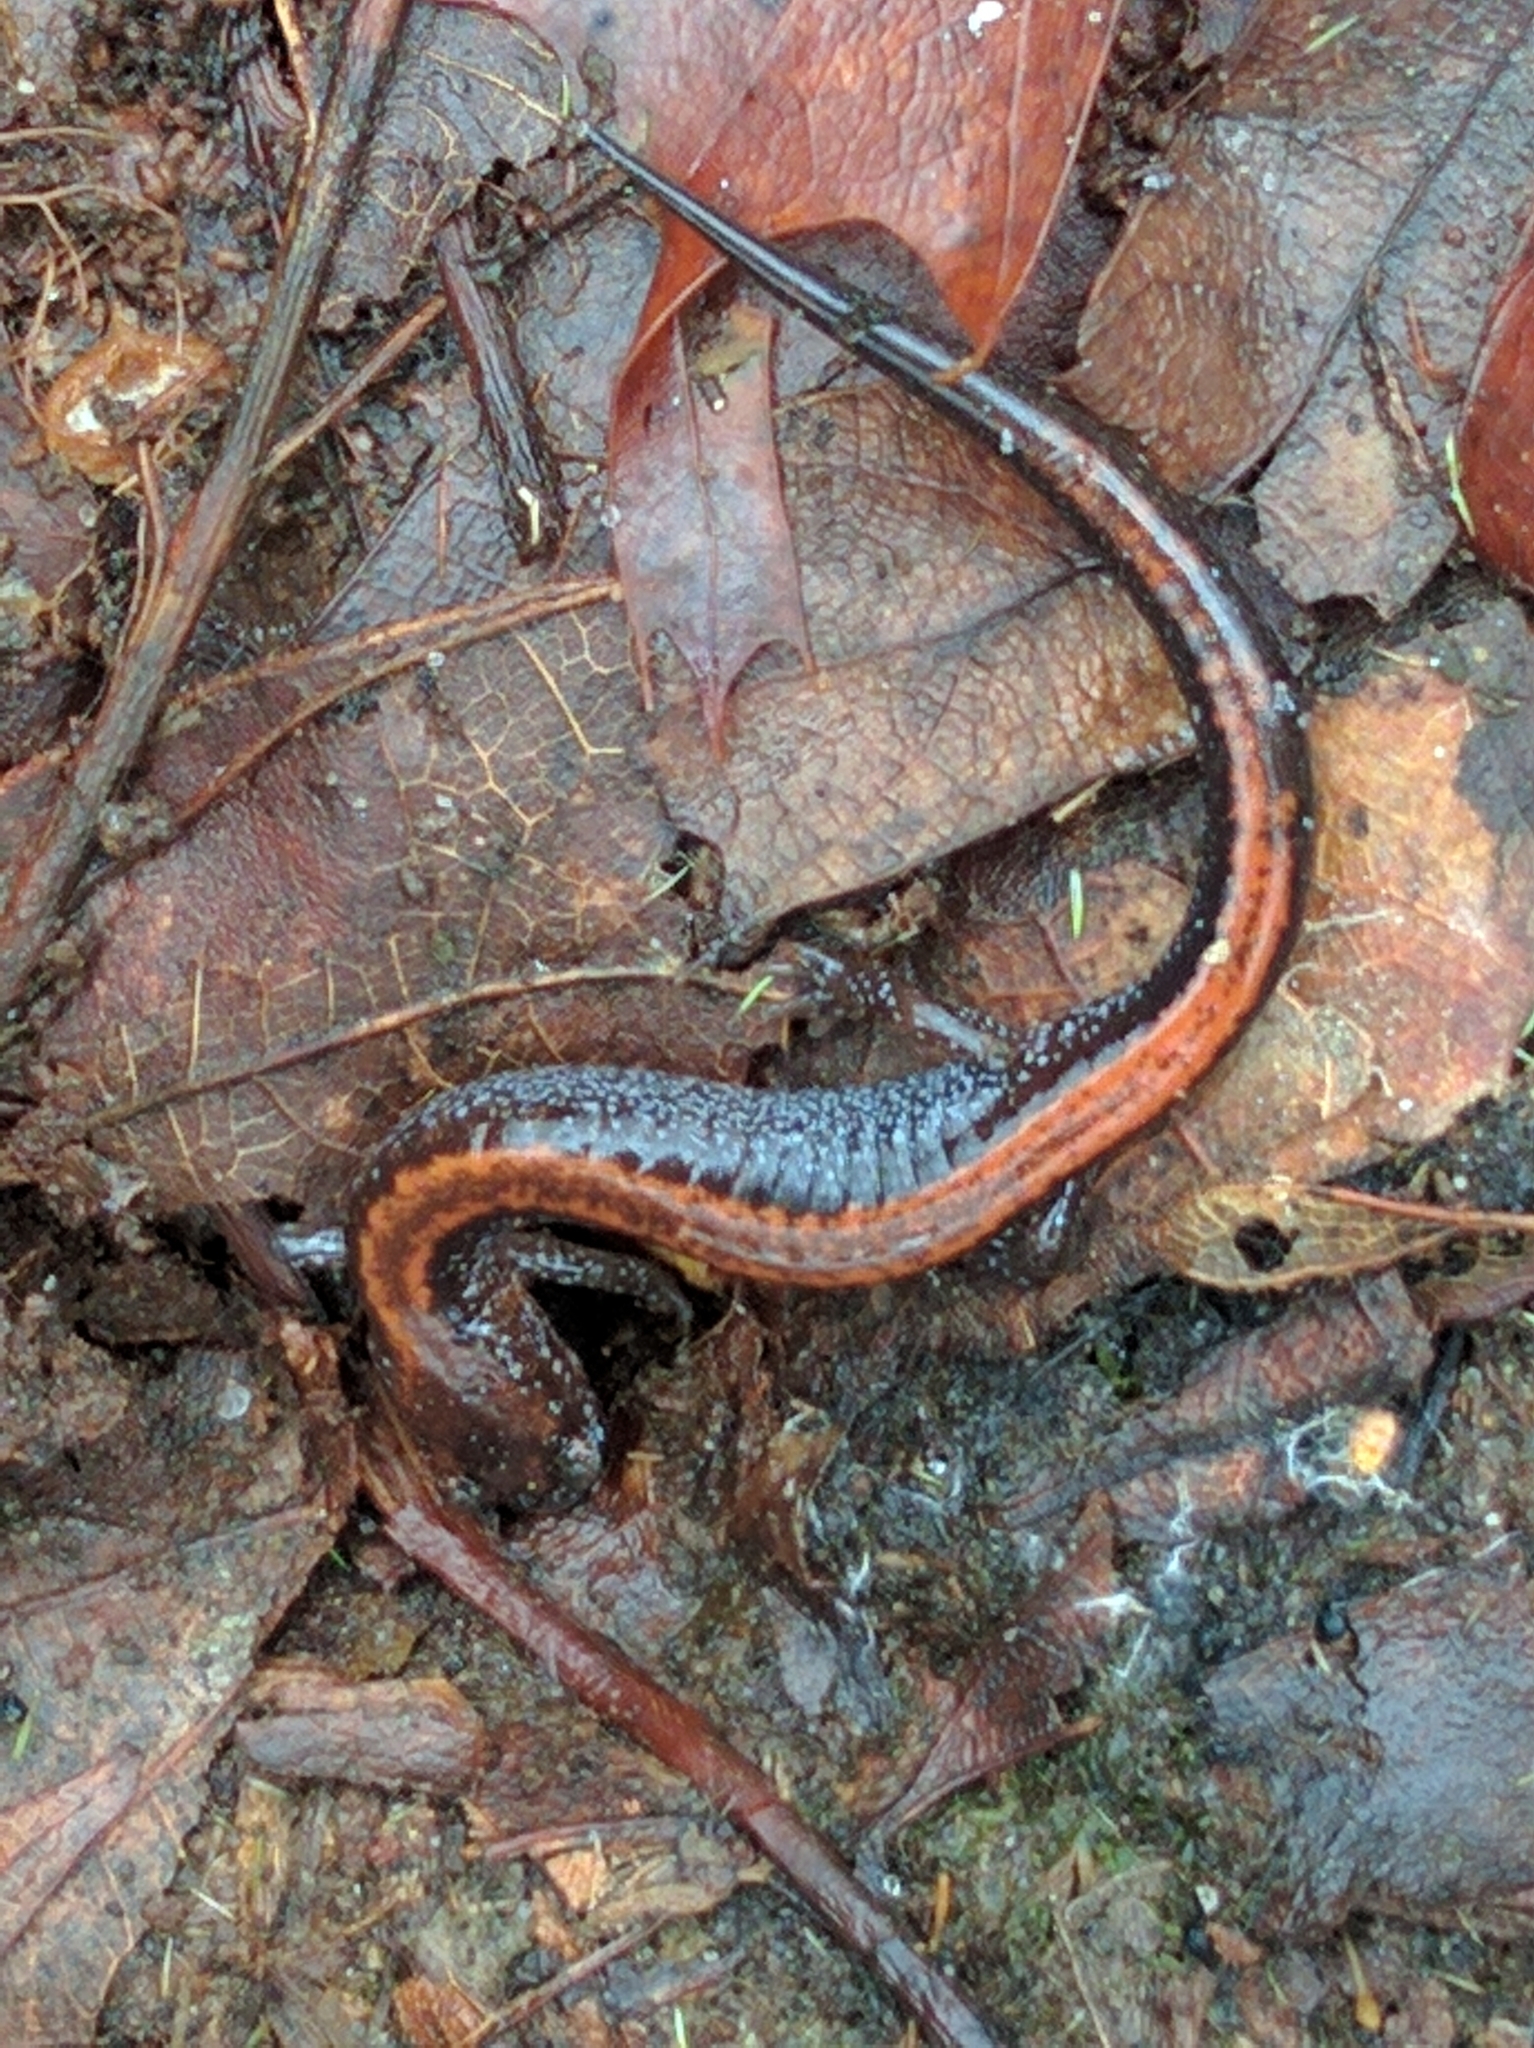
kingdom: Animalia
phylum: Chordata
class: Amphibia
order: Caudata
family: Plethodontidae
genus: Plethodon
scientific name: Plethodon cinereus
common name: Redback salamander
